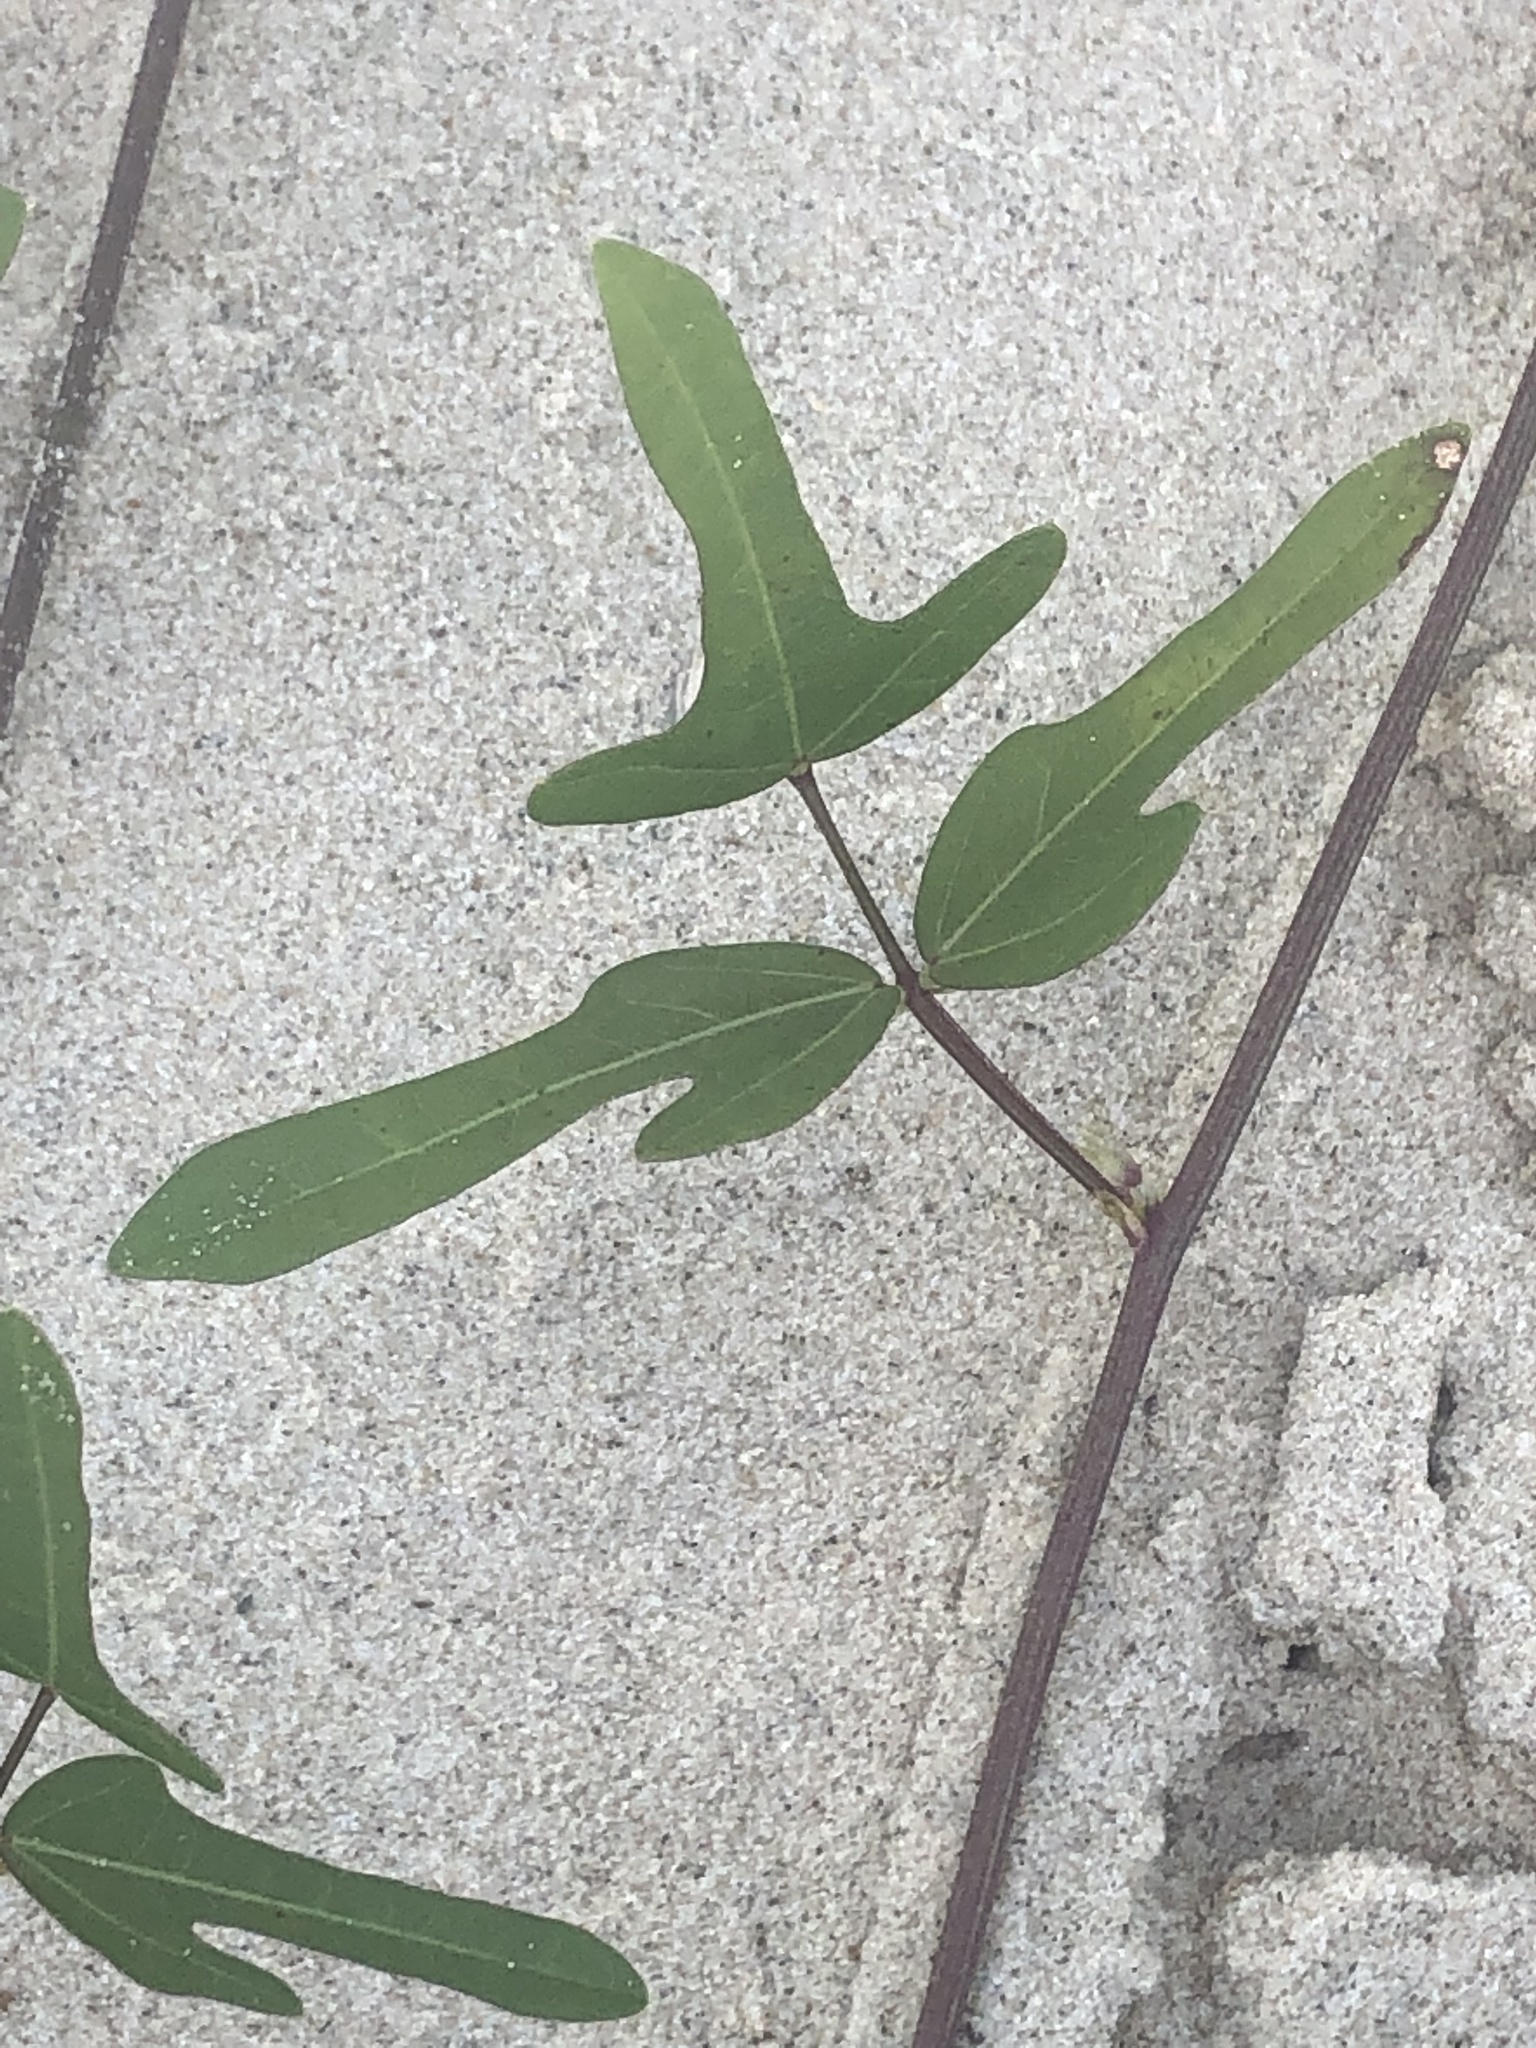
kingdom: Plantae
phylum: Tracheophyta
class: Magnoliopsida
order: Fabales
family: Fabaceae
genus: Strophostyles
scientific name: Strophostyles helvola
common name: Trailing wild bean
